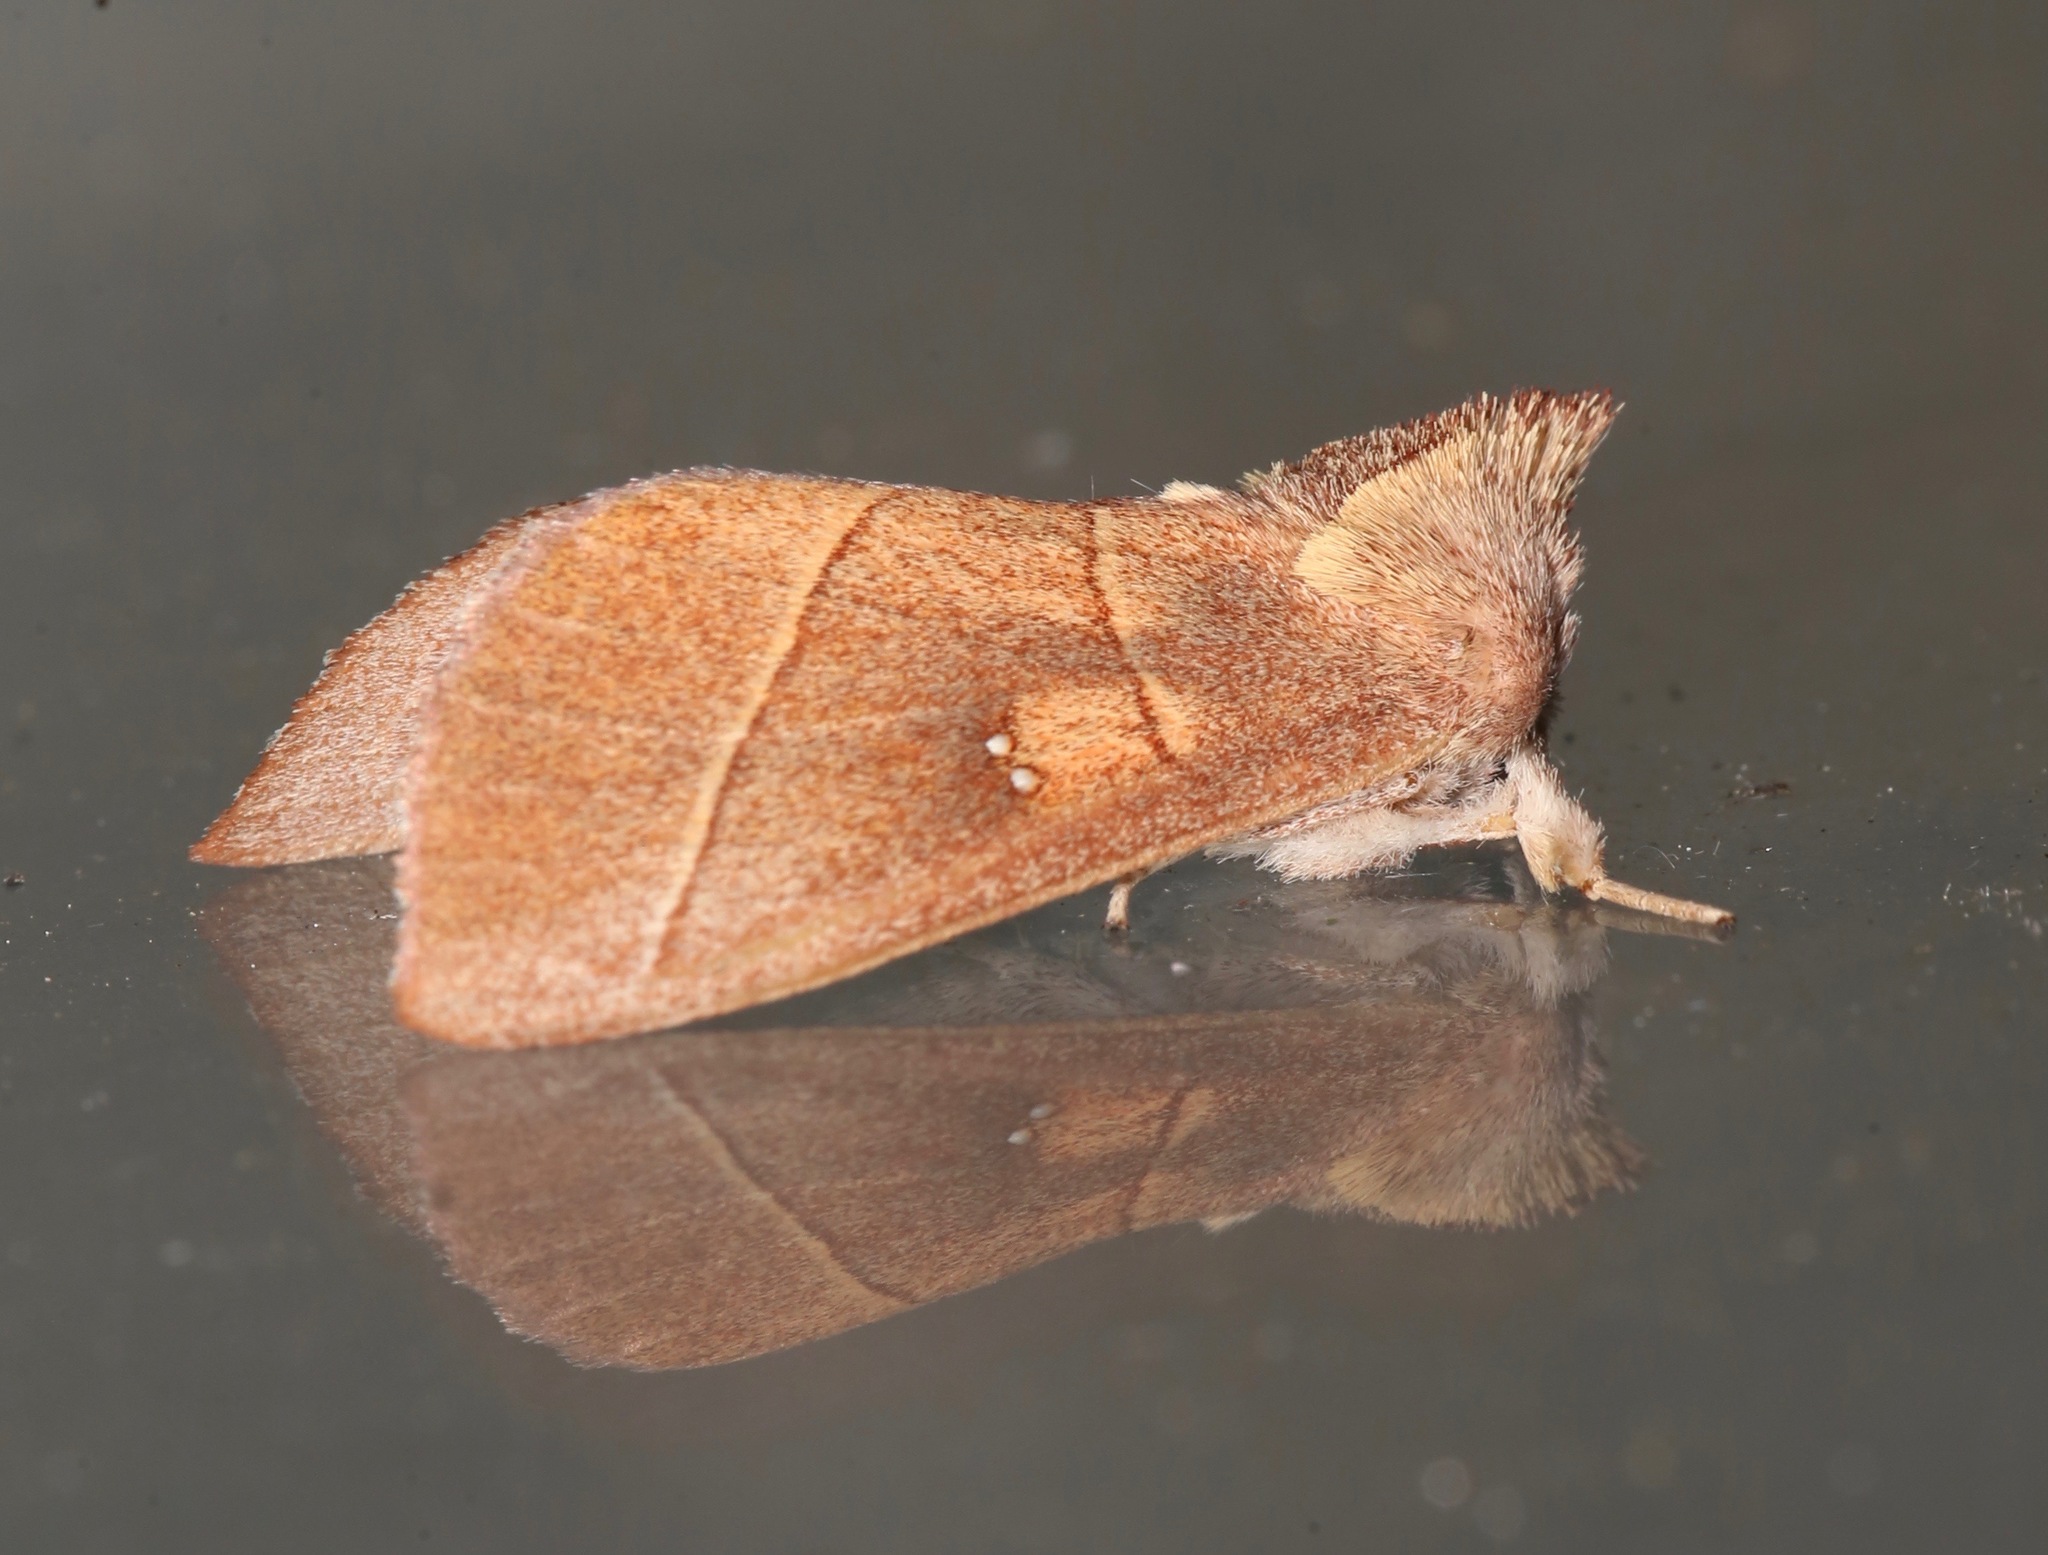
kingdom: Animalia
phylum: Arthropoda
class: Insecta
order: Lepidoptera
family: Notodontidae
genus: Nadata
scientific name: Nadata gibbosa
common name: White-dotted prominent
